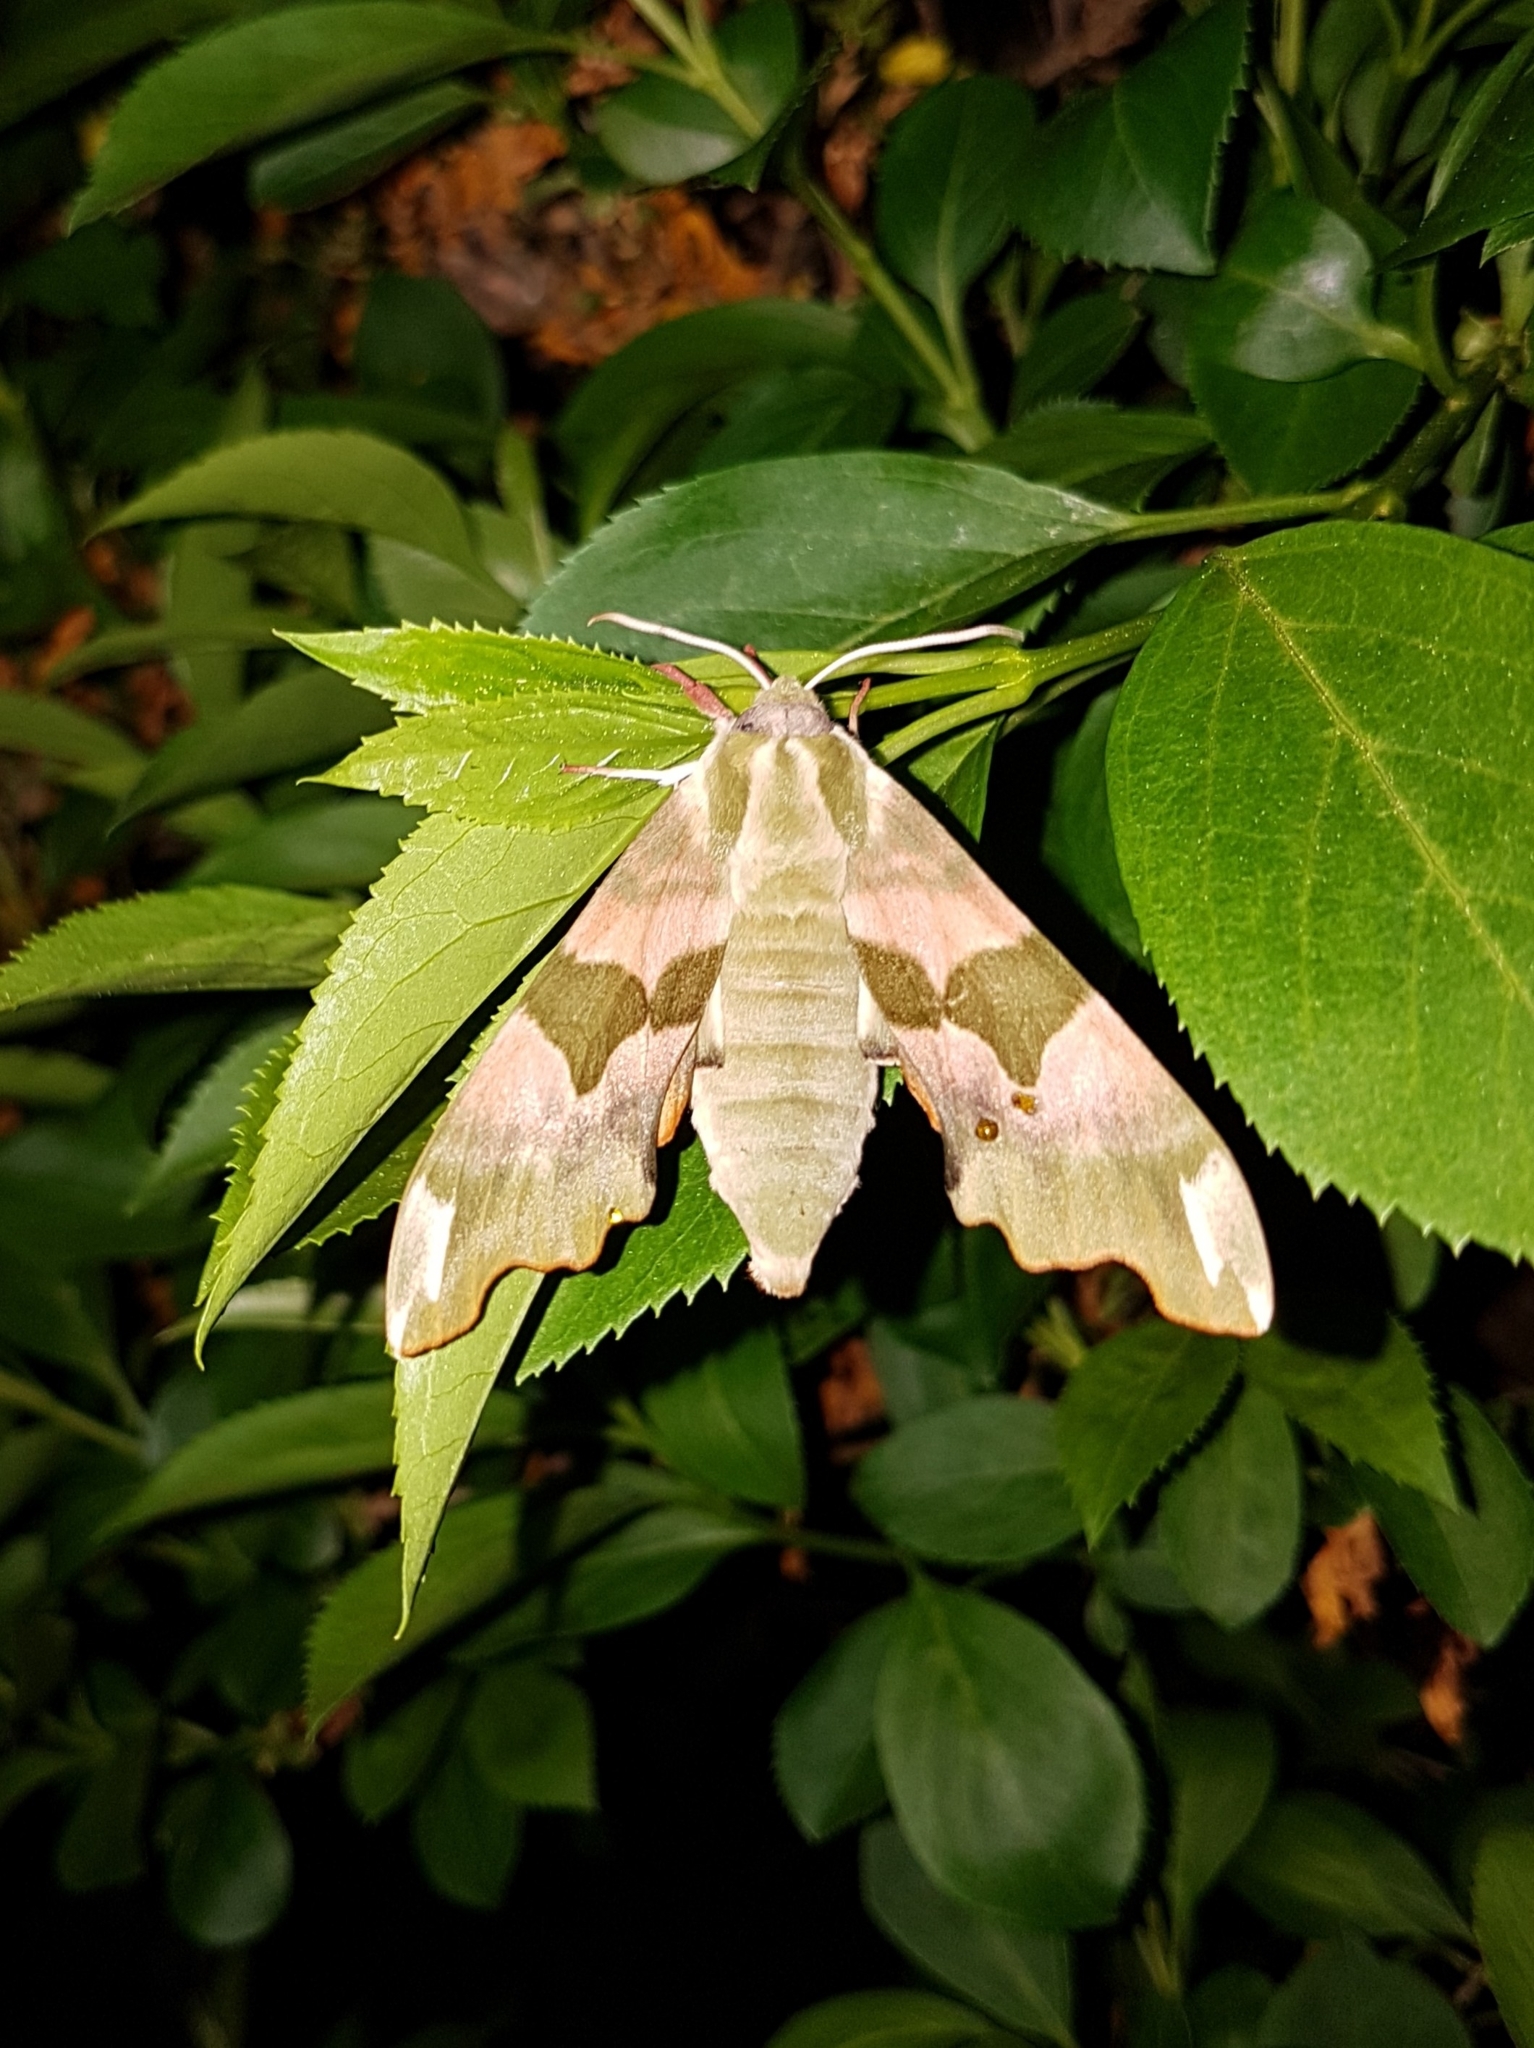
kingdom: Animalia
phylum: Arthropoda
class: Insecta
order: Lepidoptera
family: Sphingidae
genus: Mimas
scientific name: Mimas tiliae
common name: Lime hawk-moth
